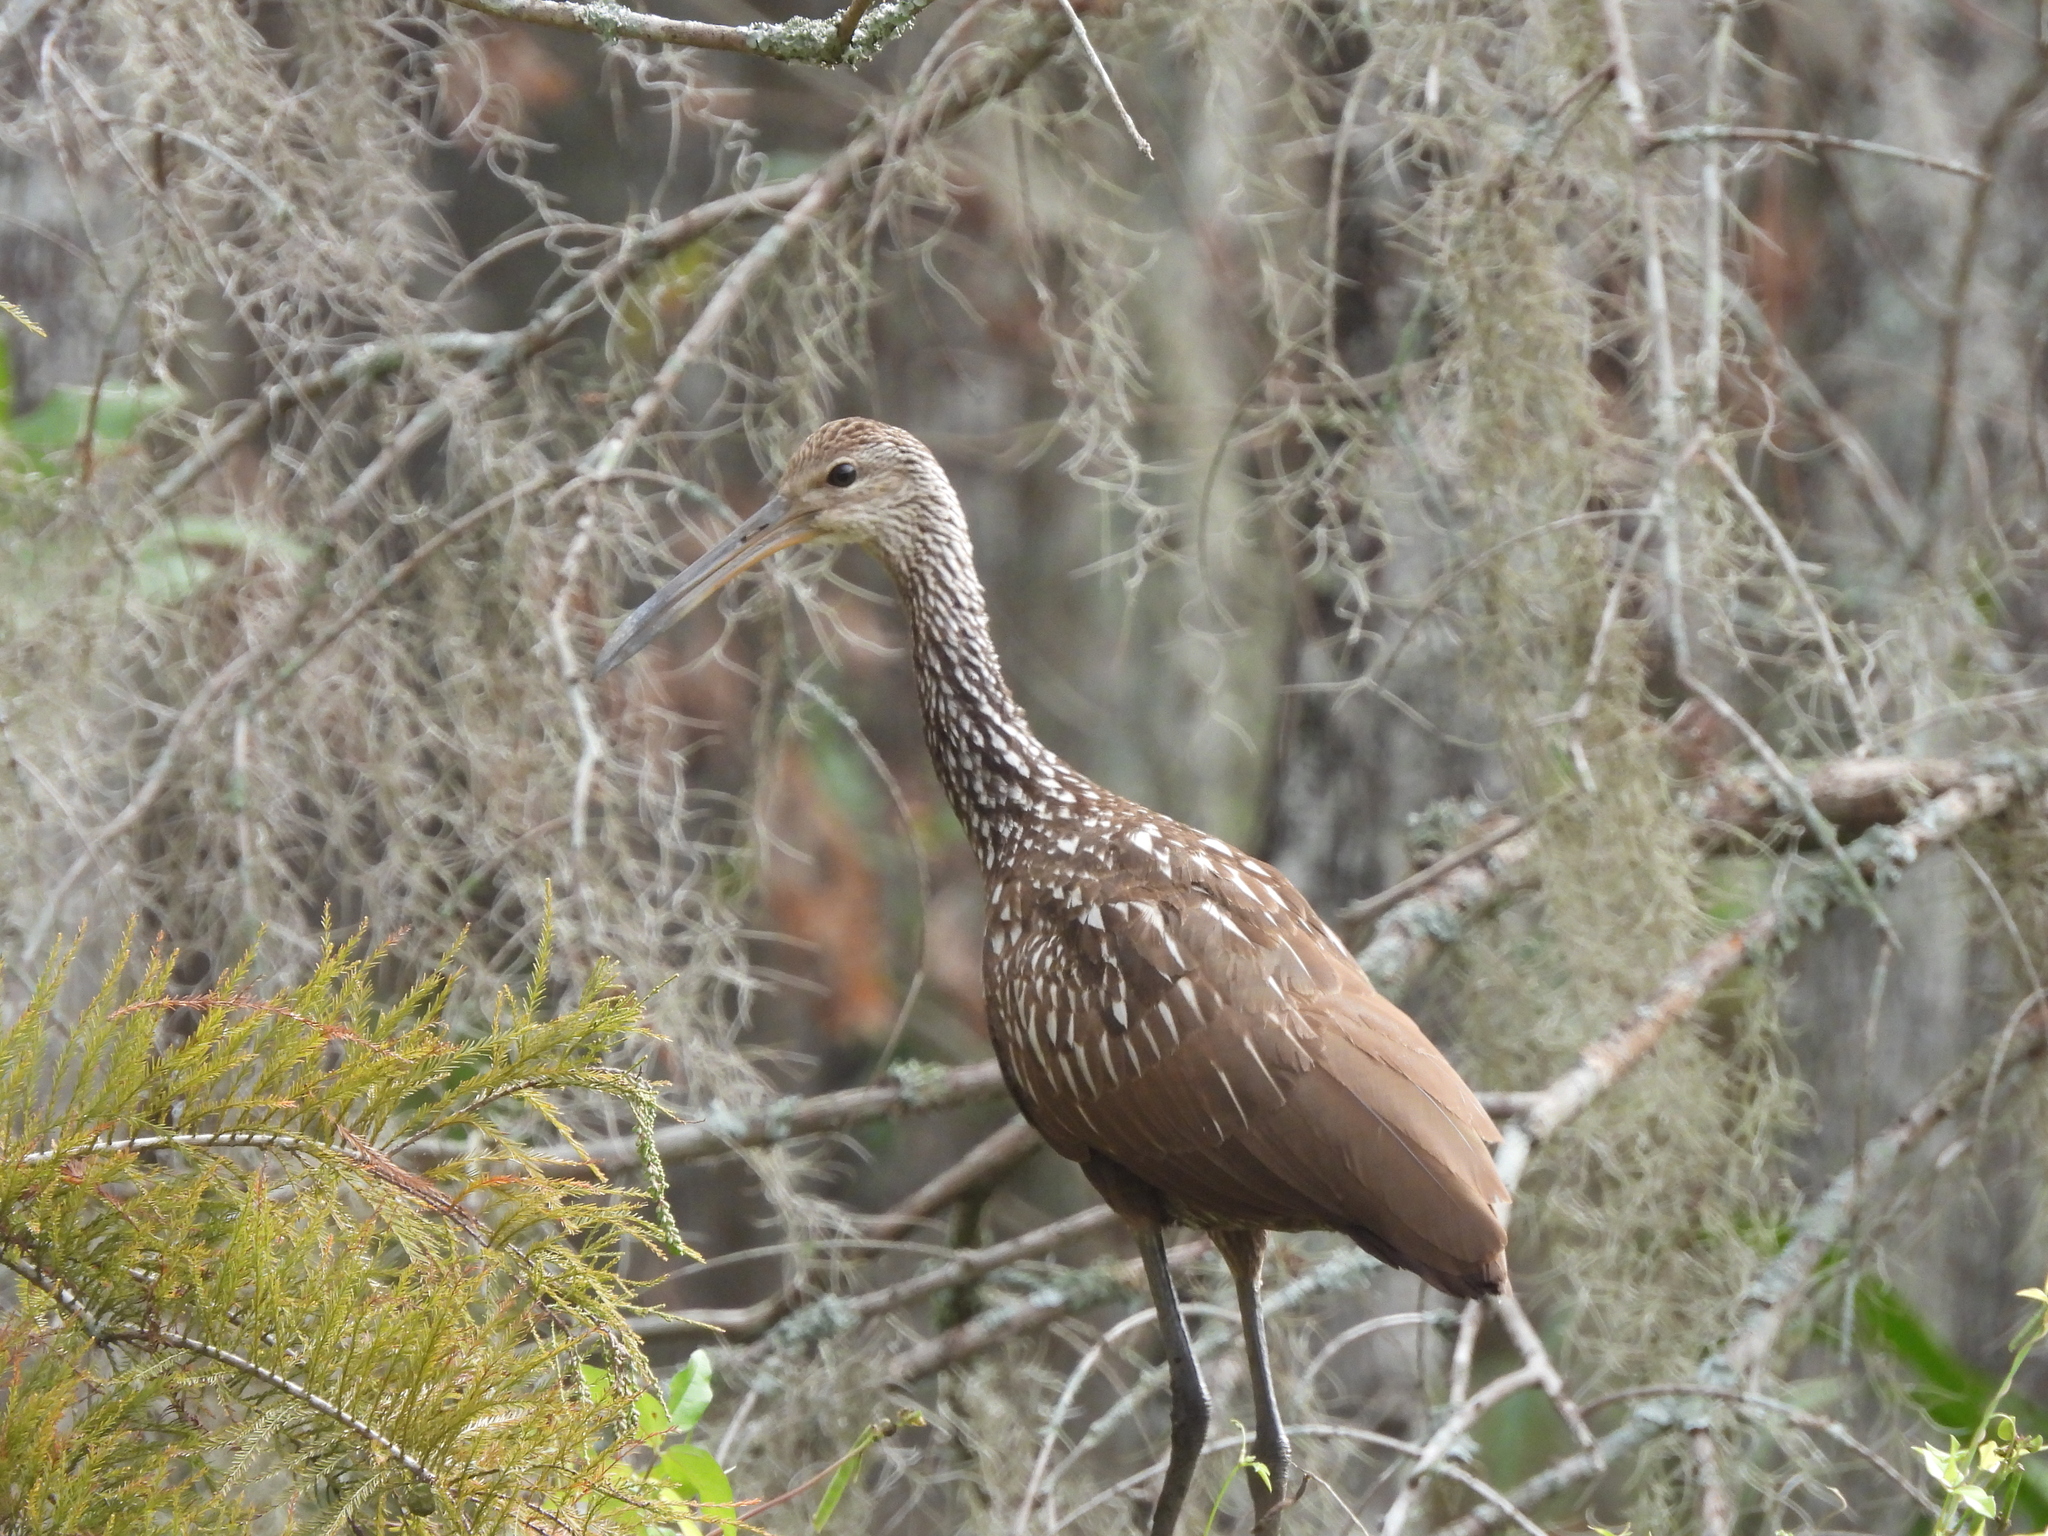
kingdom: Animalia
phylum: Chordata
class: Aves
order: Gruiformes
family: Aramidae
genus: Aramus
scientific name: Aramus guarauna
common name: Limpkin
